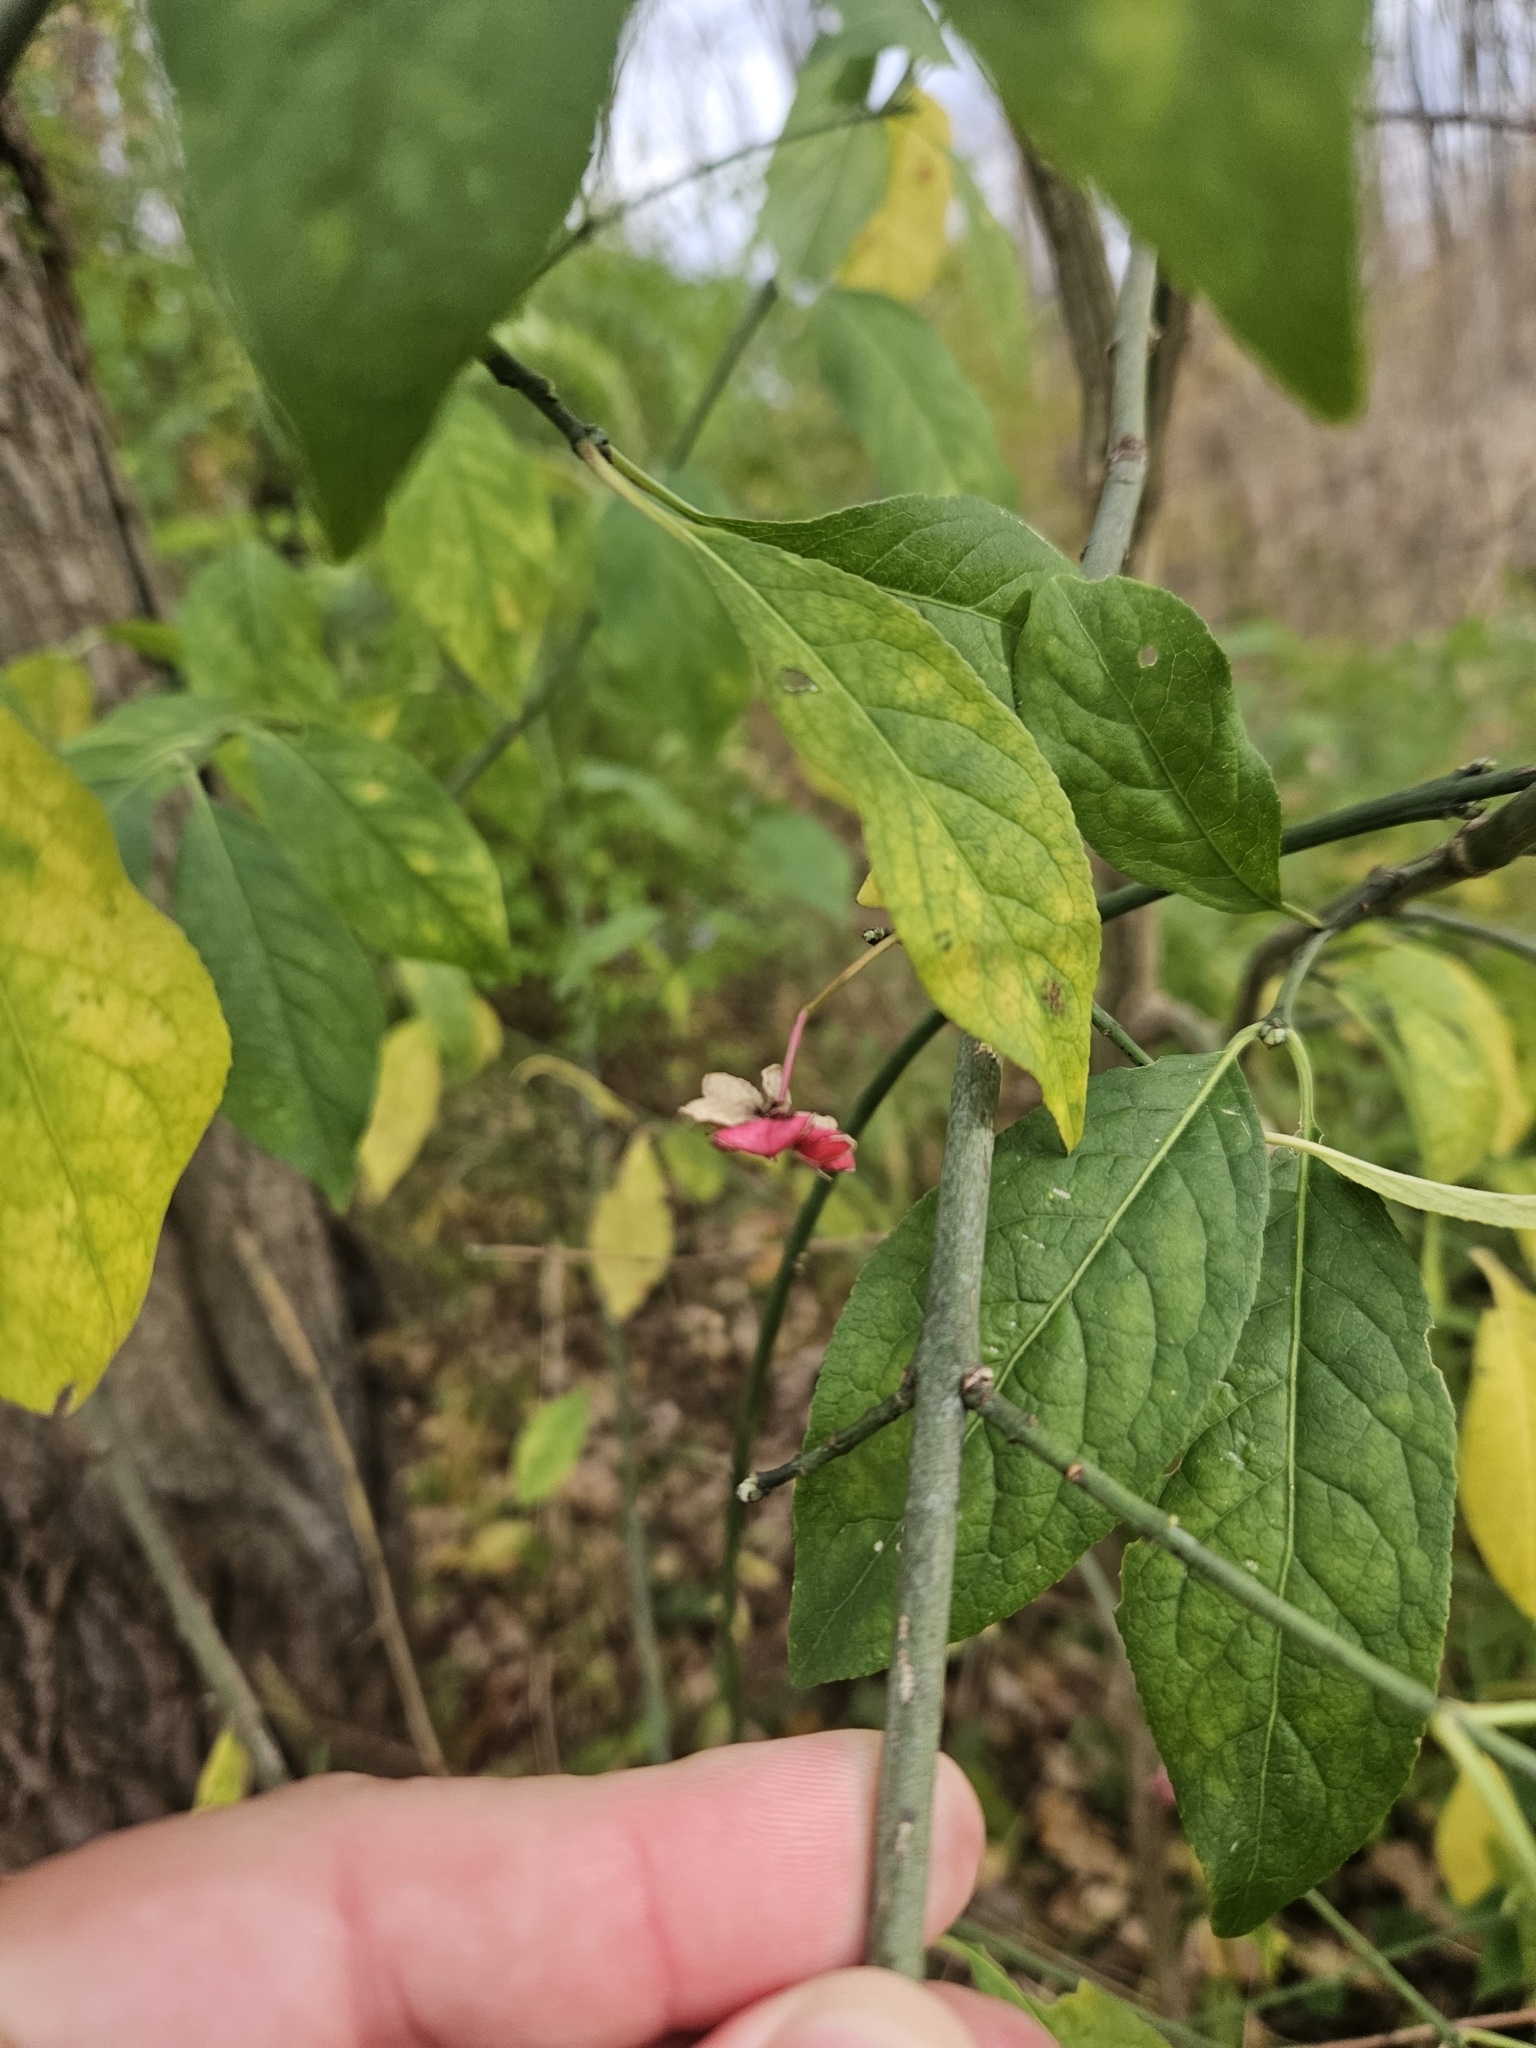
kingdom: Plantae
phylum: Tracheophyta
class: Magnoliopsida
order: Celastrales
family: Celastraceae
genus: Euonymus
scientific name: Euonymus europaeus
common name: Spindle
